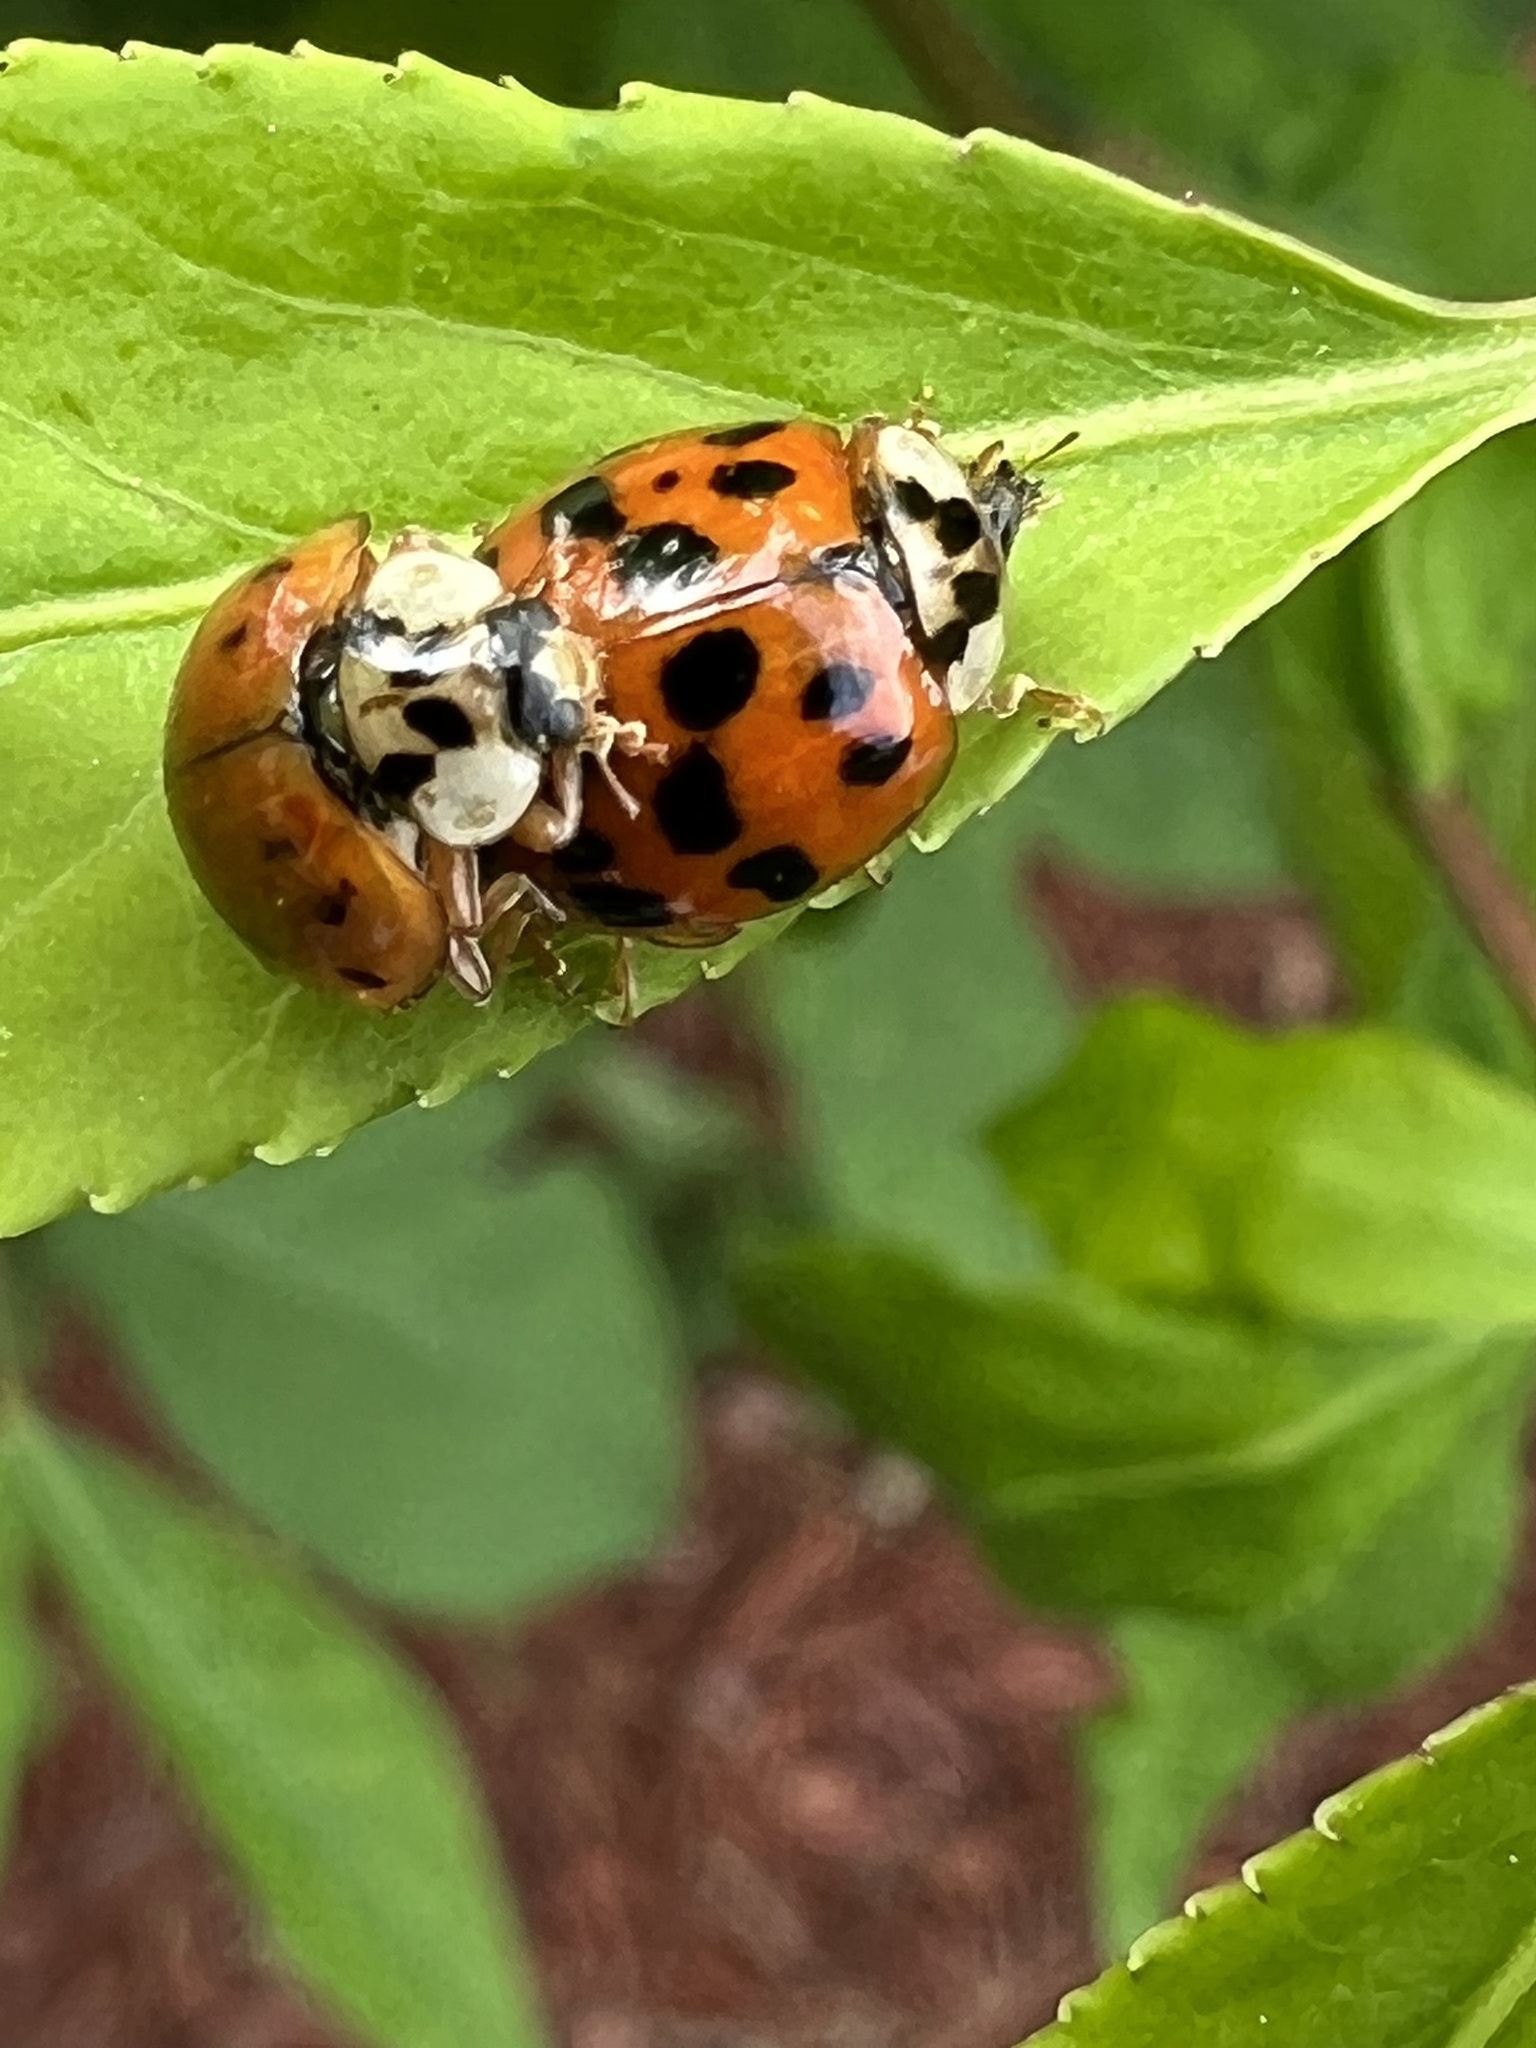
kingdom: Animalia
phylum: Arthropoda
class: Insecta
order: Coleoptera
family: Coccinellidae
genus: Harmonia
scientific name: Harmonia axyridis
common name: Harlequin ladybird
